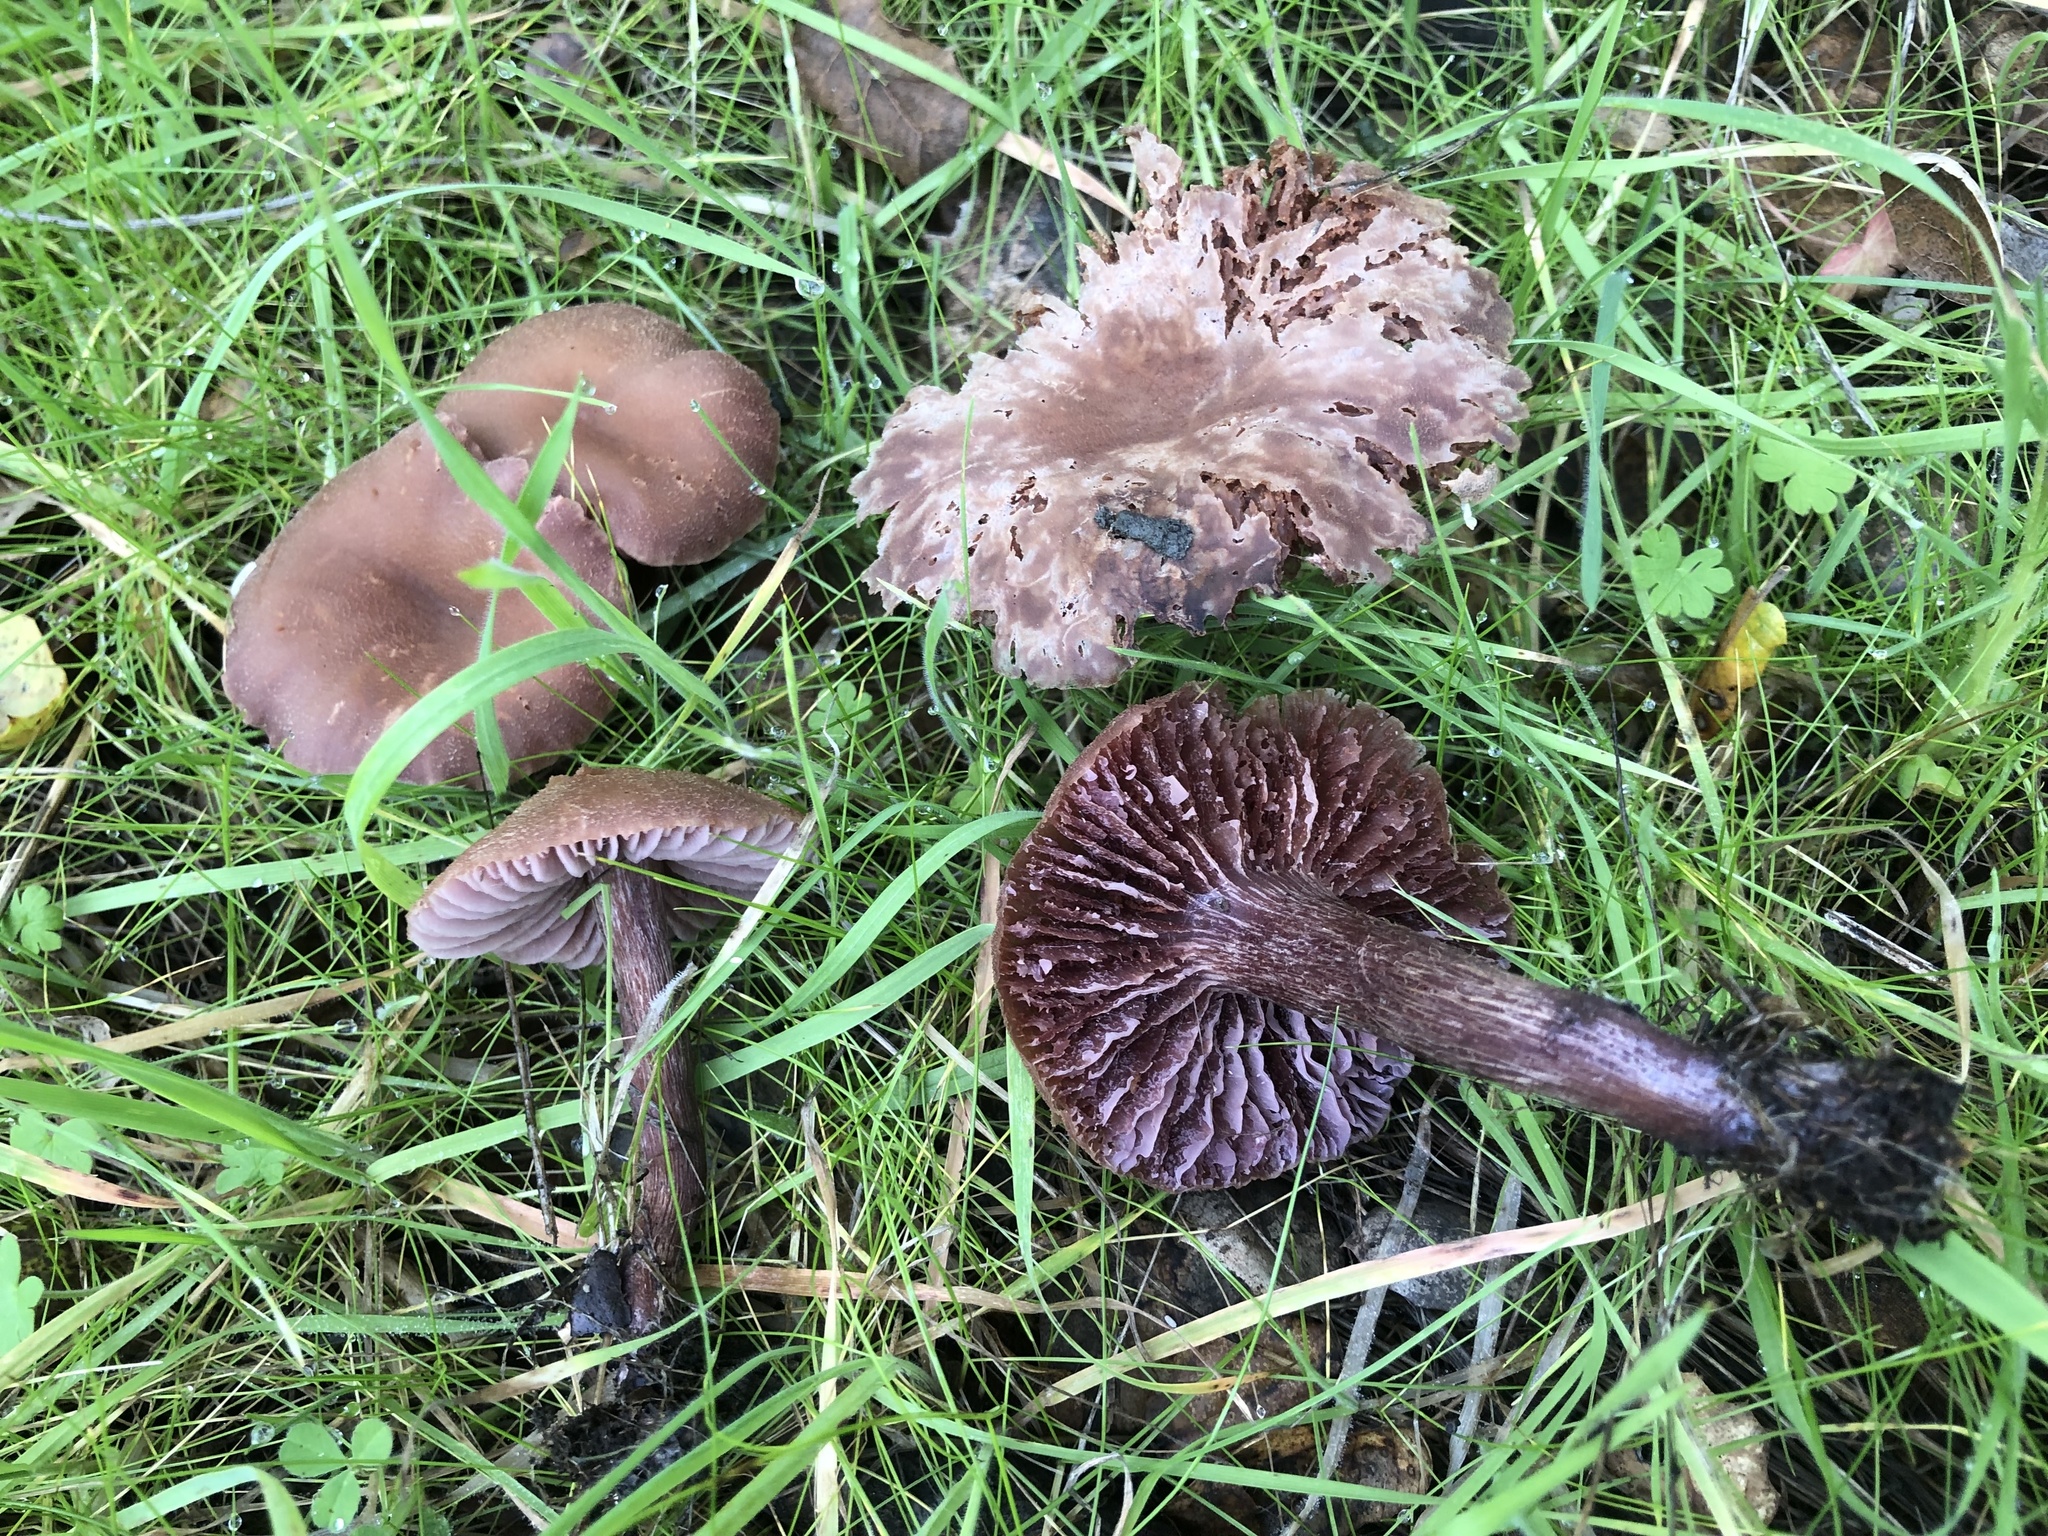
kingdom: Fungi
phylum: Basidiomycota
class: Agaricomycetes
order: Agaricales
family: Hydnangiaceae
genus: Laccaria
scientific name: Laccaria amethysteo-occidentalis
